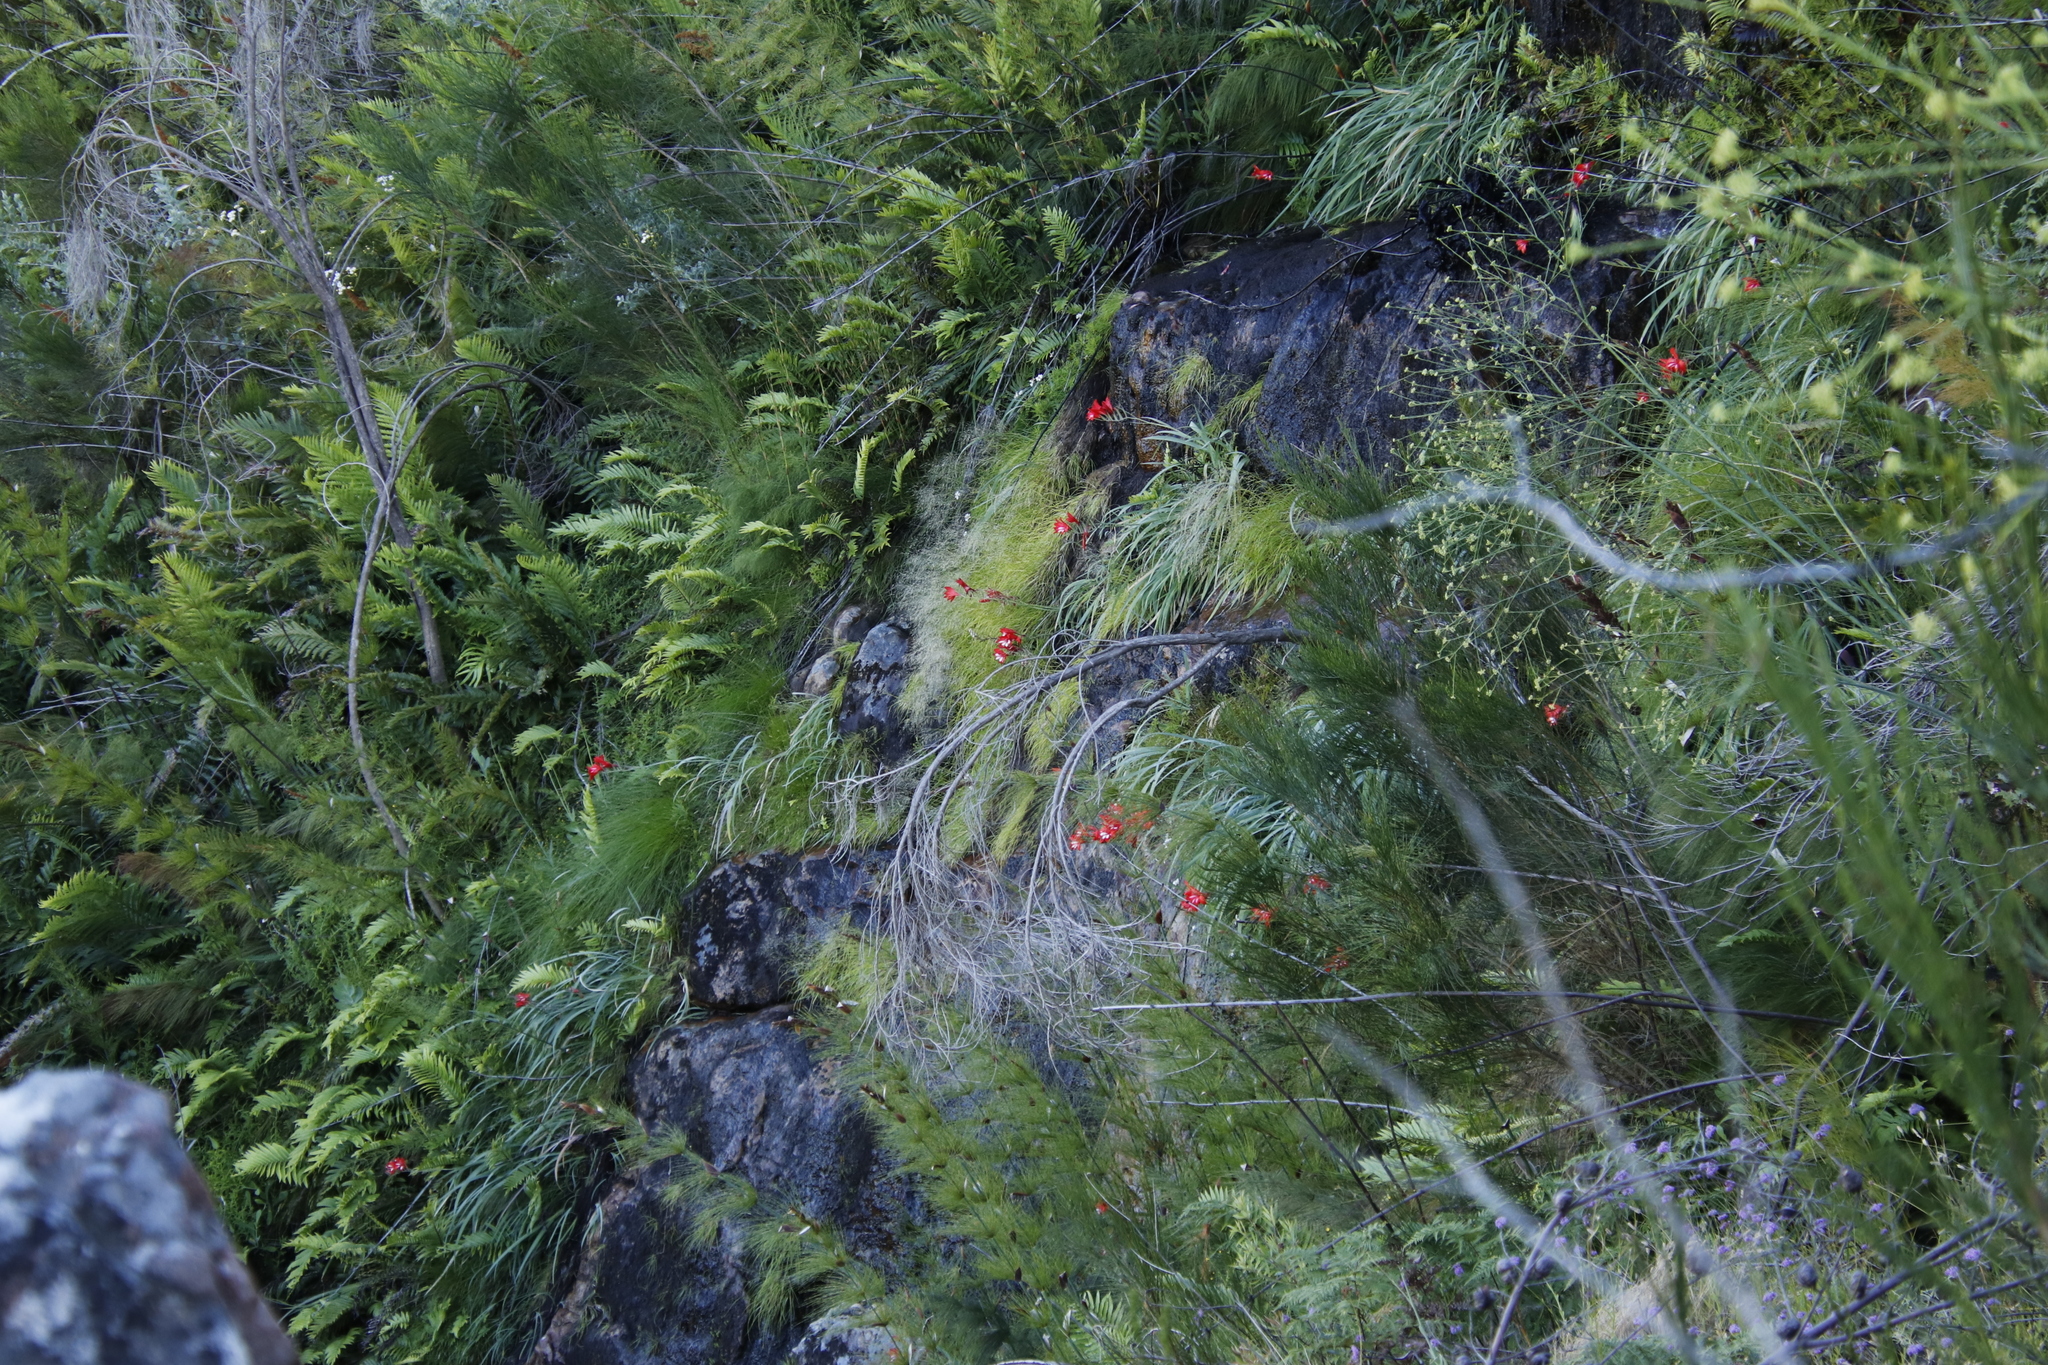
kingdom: Plantae
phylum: Tracheophyta
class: Liliopsida
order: Asparagales
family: Iridaceae
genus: Gladiolus
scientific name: Gladiolus cardinalis
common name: New year-lily
